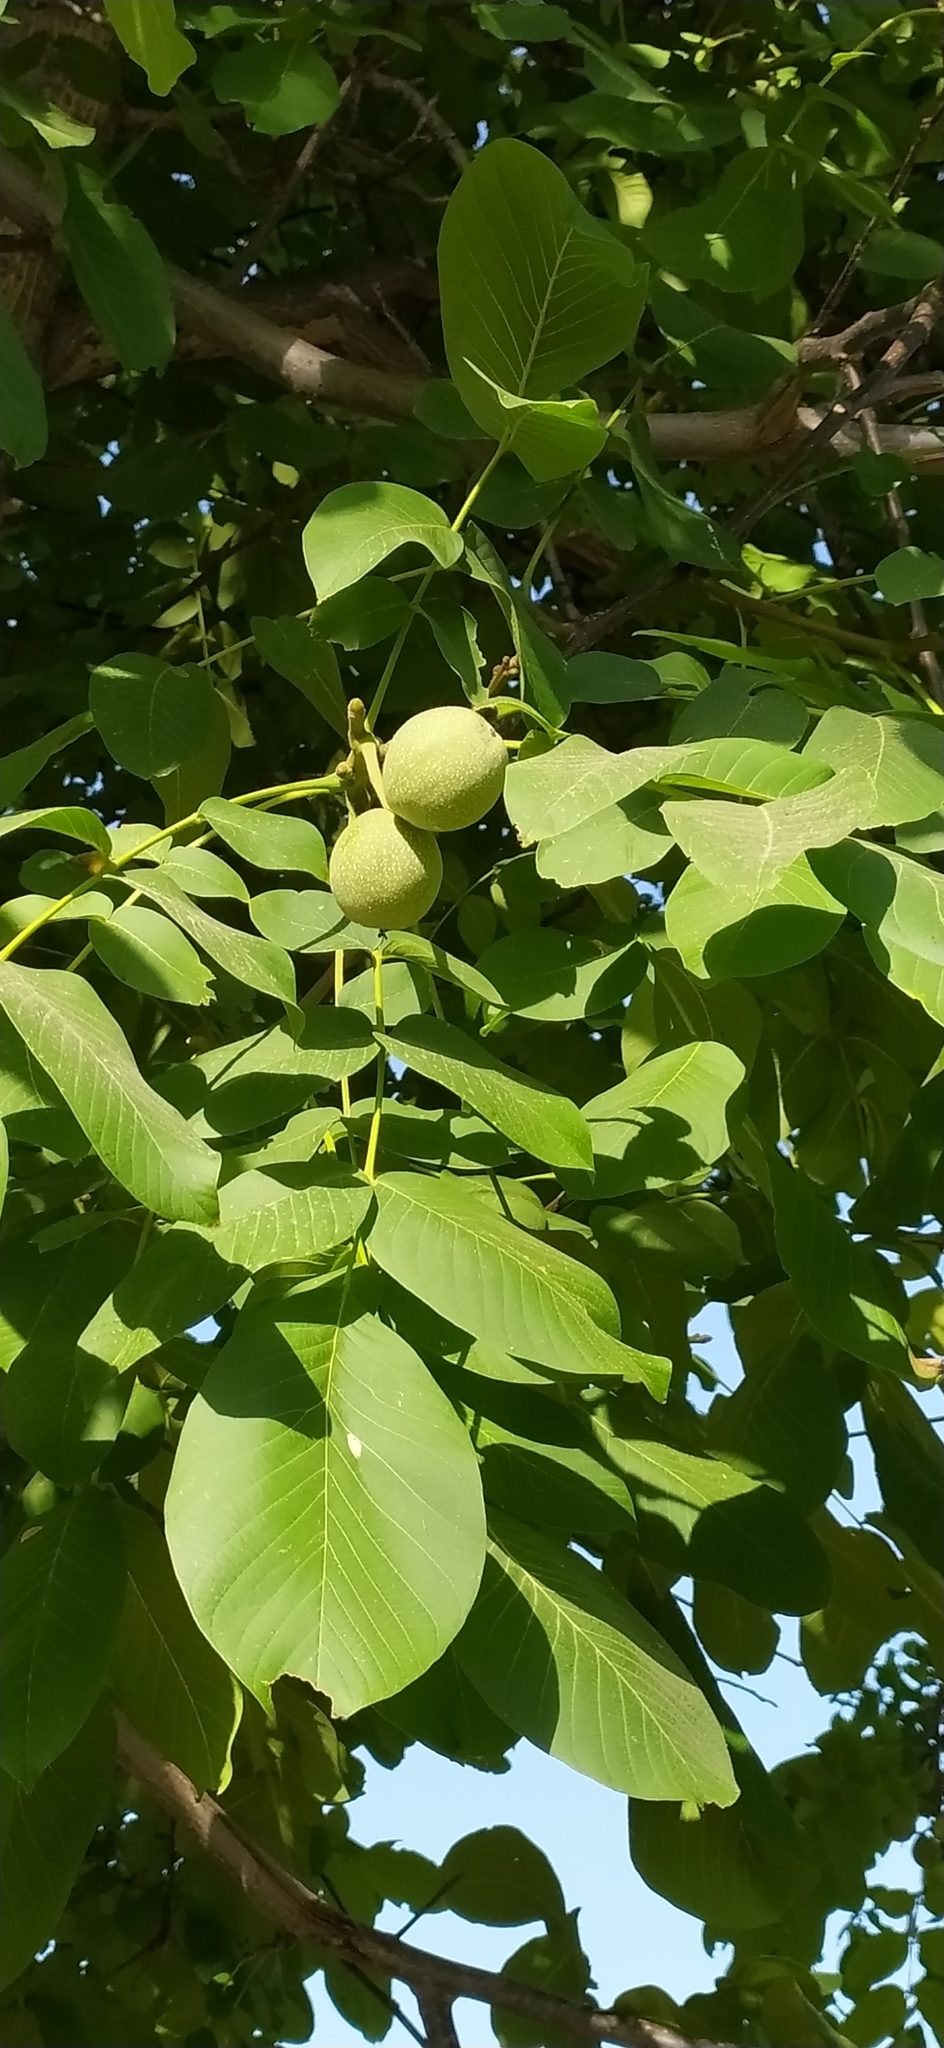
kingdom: Plantae
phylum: Tracheophyta
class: Magnoliopsida
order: Fagales
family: Juglandaceae
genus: Juglans
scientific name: Juglans regia
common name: Walnut
